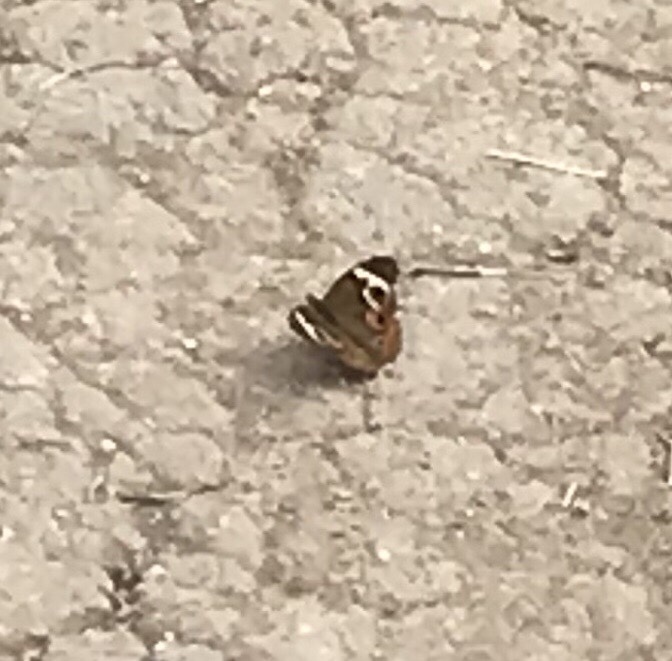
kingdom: Animalia
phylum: Arthropoda
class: Insecta
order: Lepidoptera
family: Nymphalidae
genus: Junonia
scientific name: Junonia coenia
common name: Common buckeye
